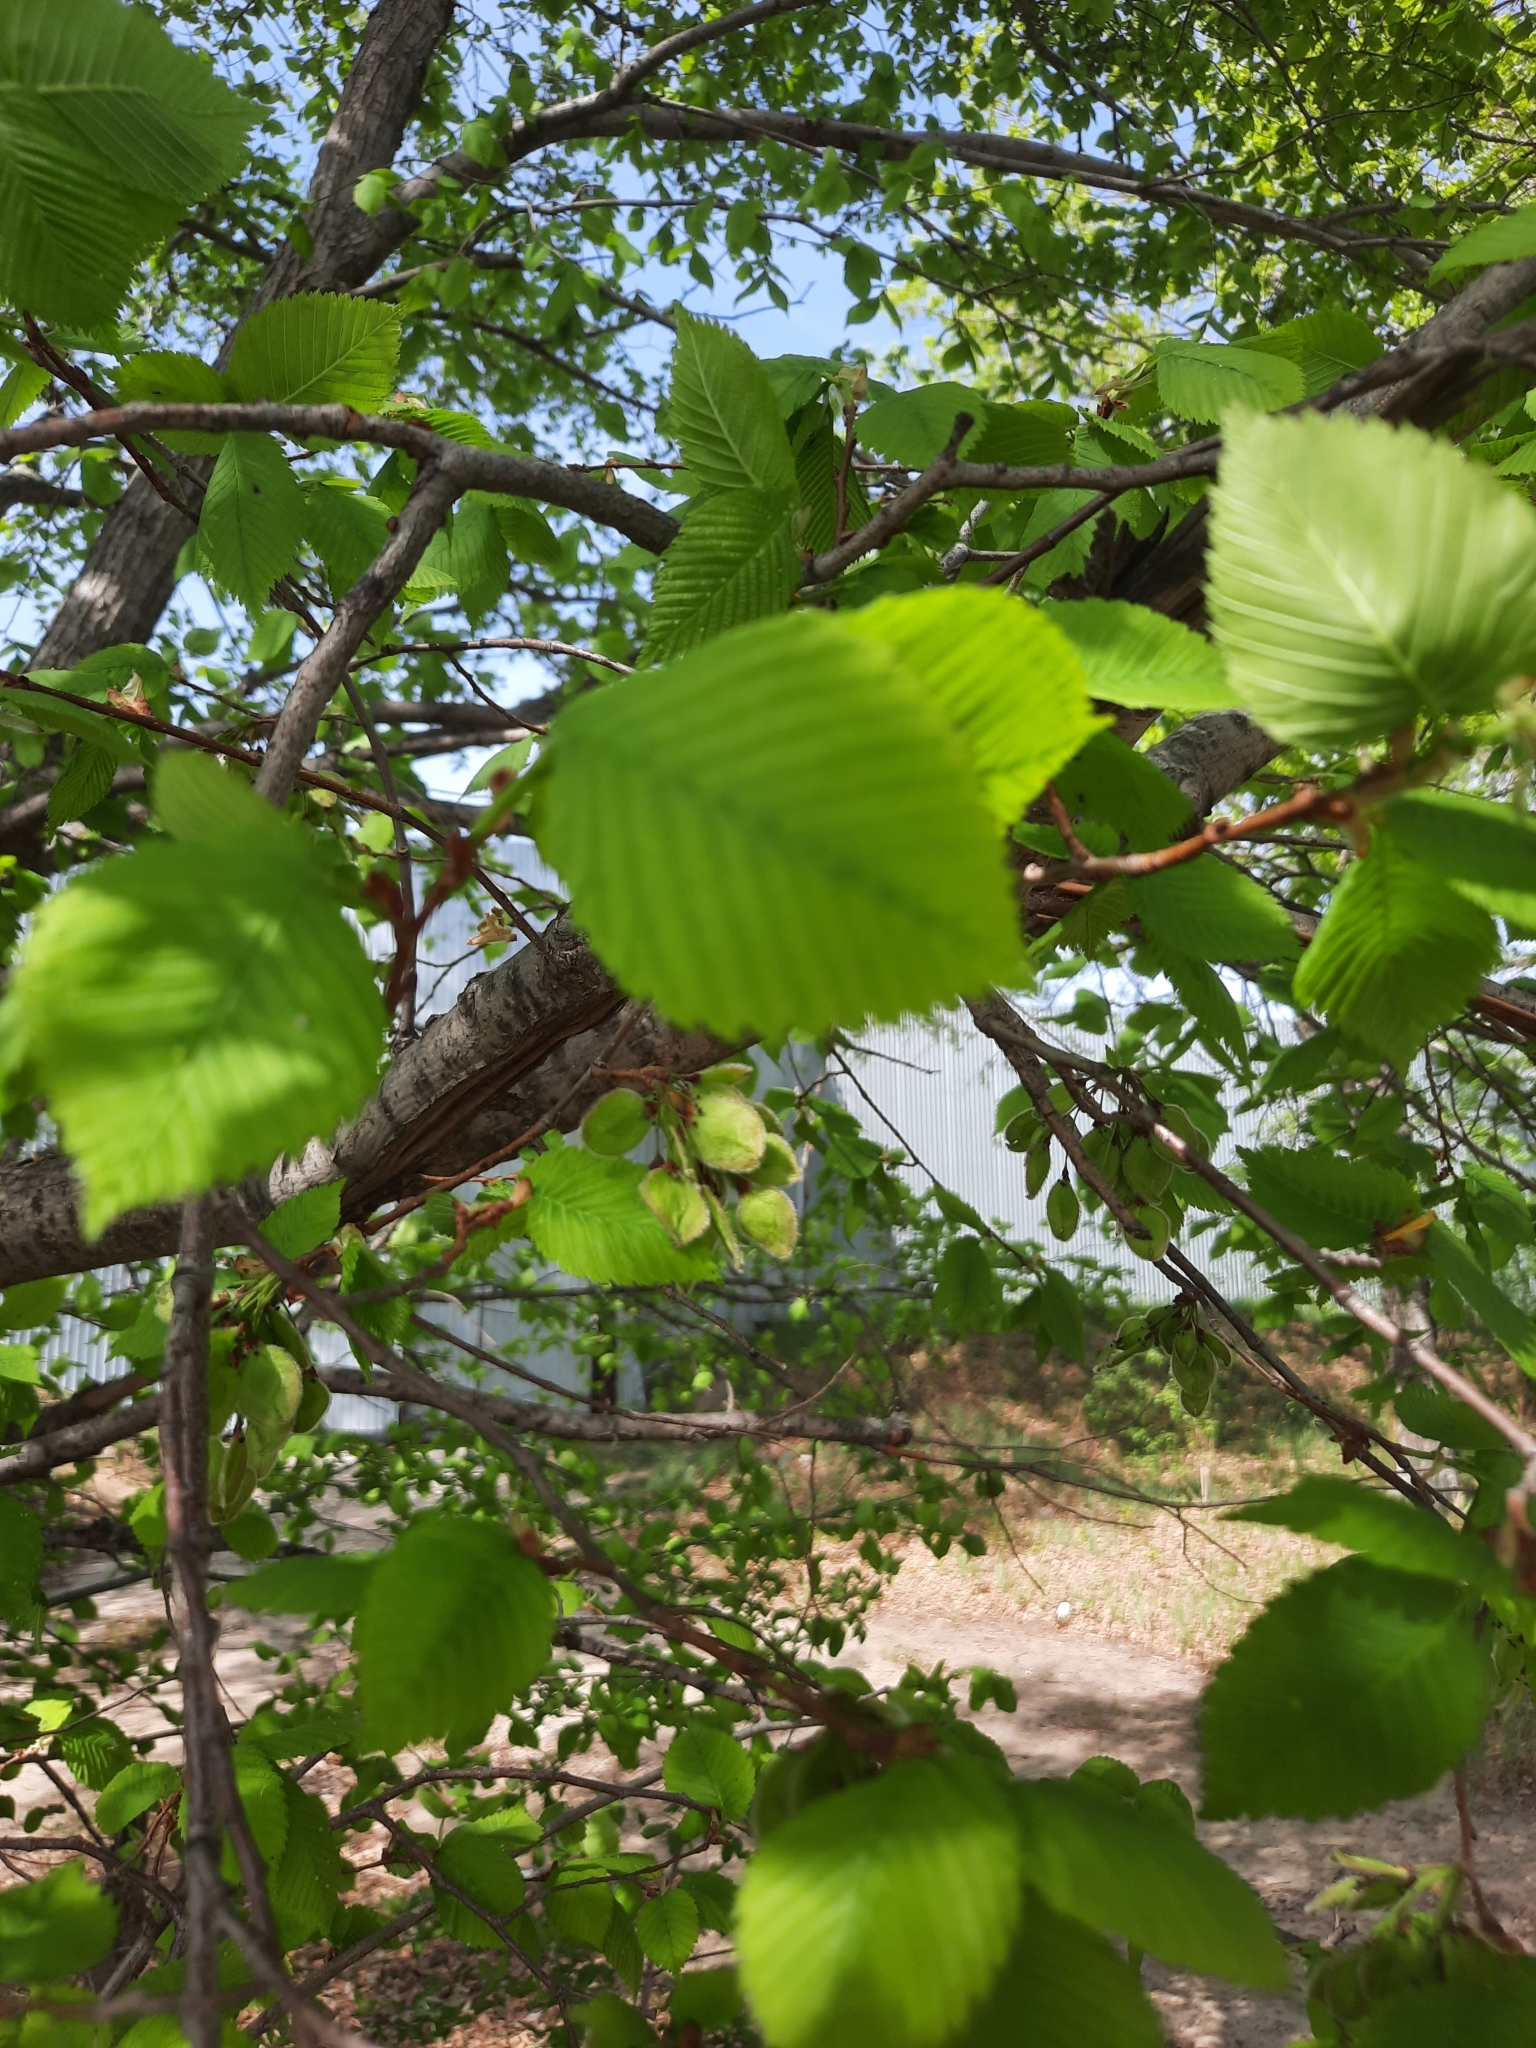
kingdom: Plantae
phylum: Tracheophyta
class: Magnoliopsida
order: Rosales
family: Ulmaceae
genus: Ulmus
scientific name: Ulmus laevis
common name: European white-elm
